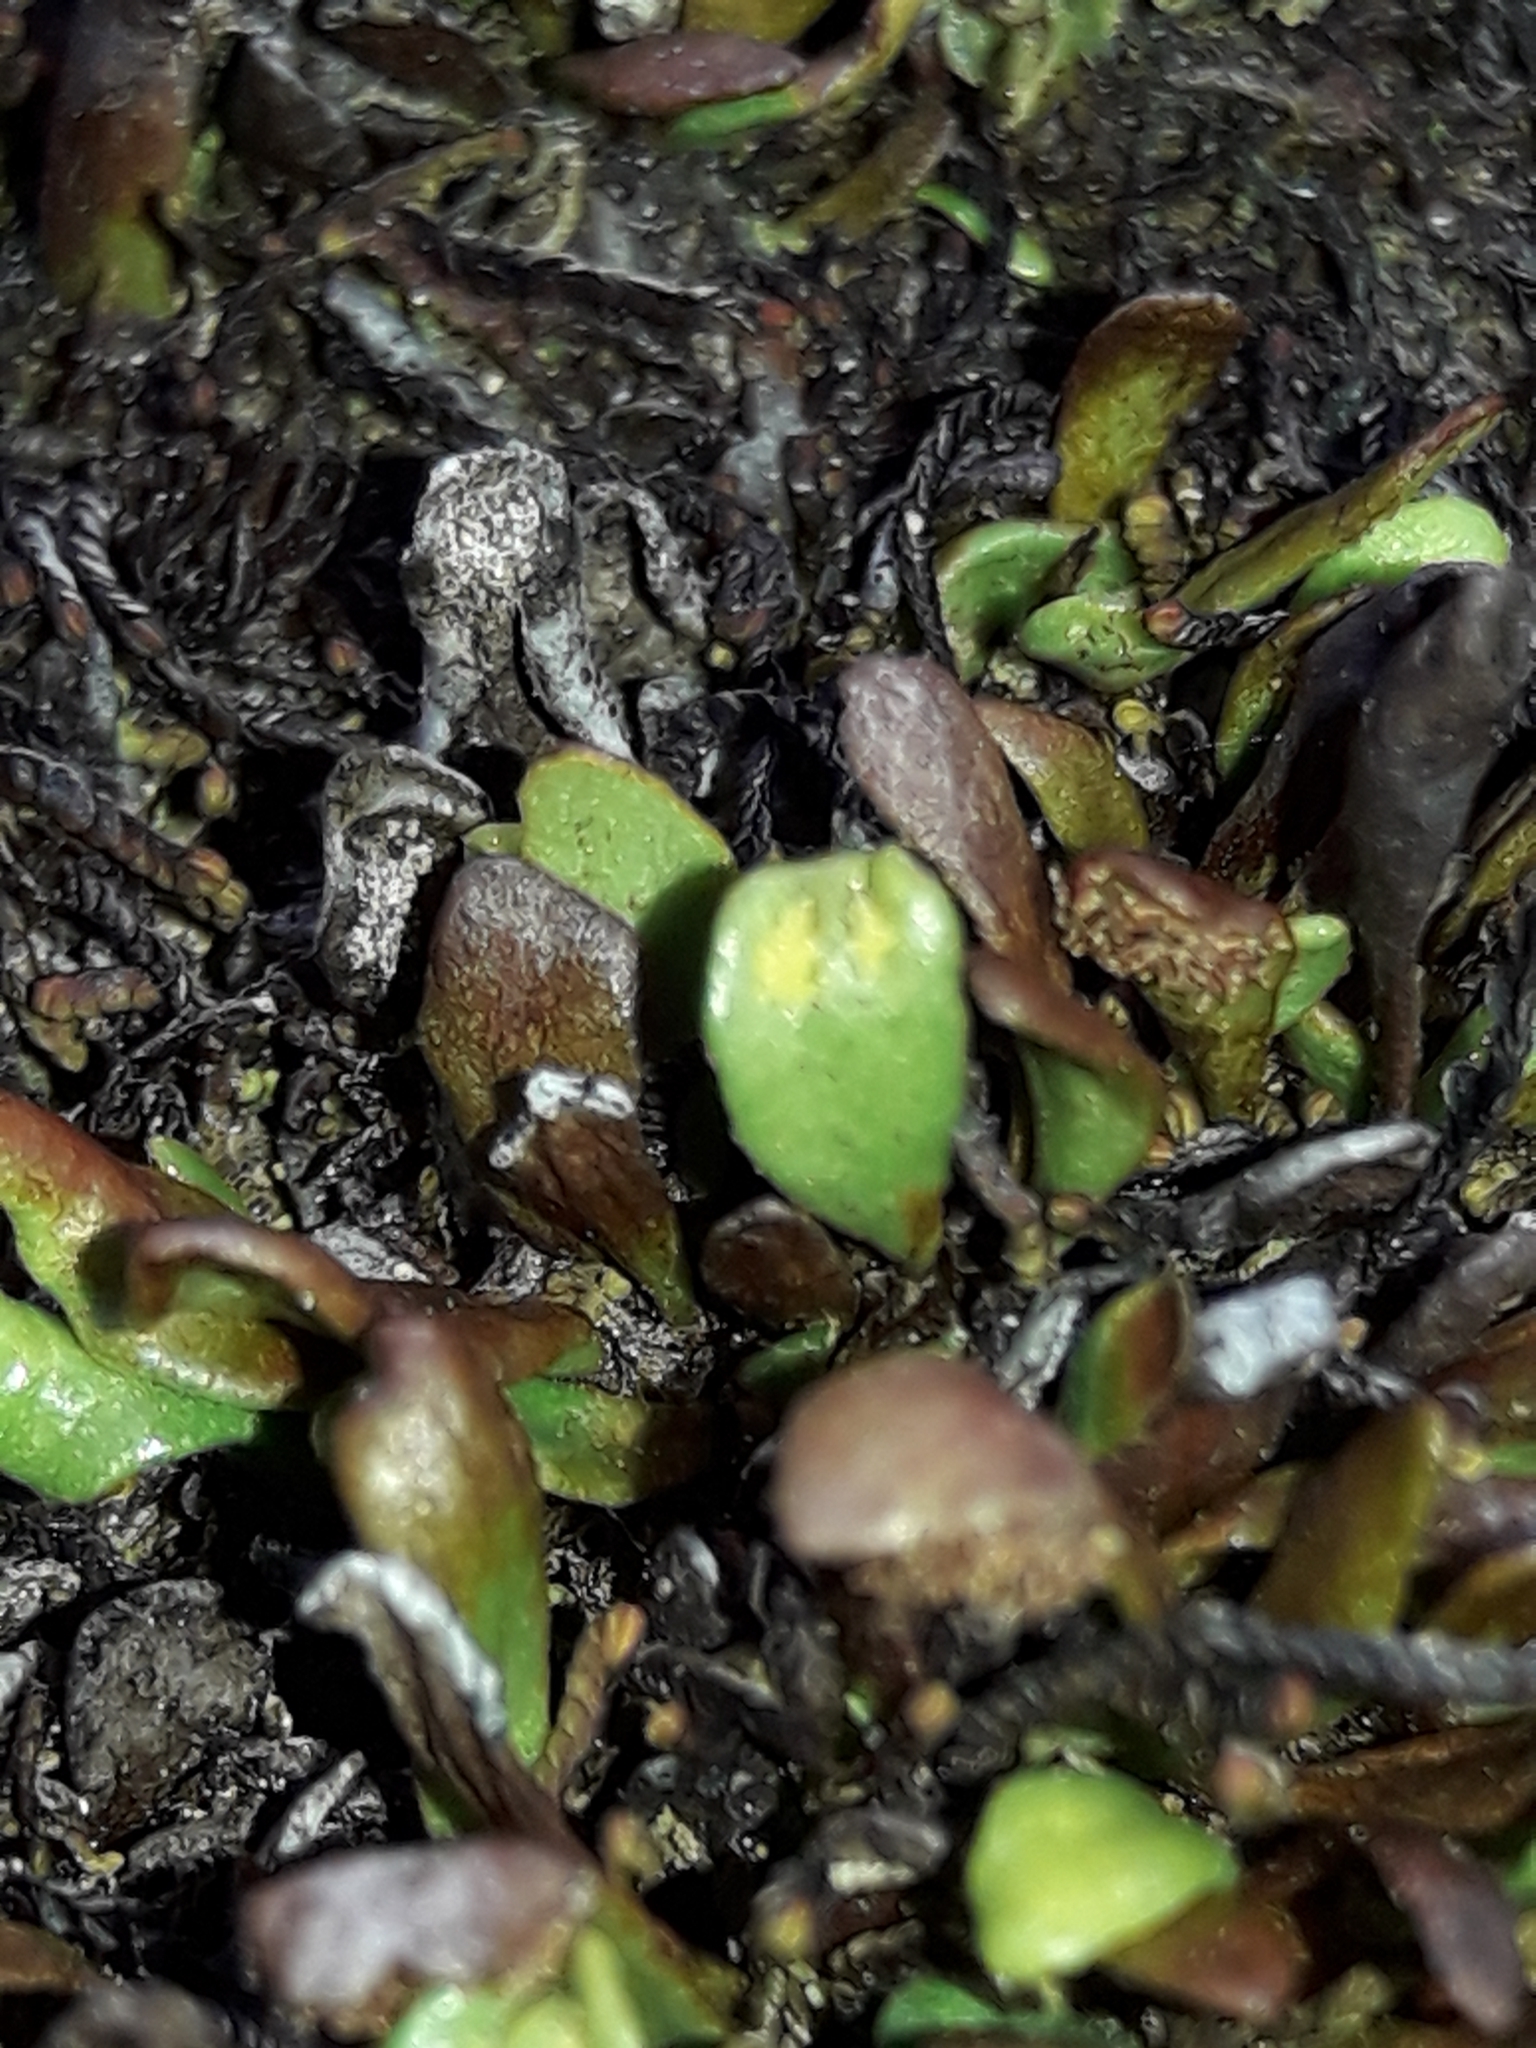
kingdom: Plantae
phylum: Tracheophyta
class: Polypodiopsida
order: Polypodiales
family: Polypodiaceae
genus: Notogrammitis
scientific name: Notogrammitis crassior
